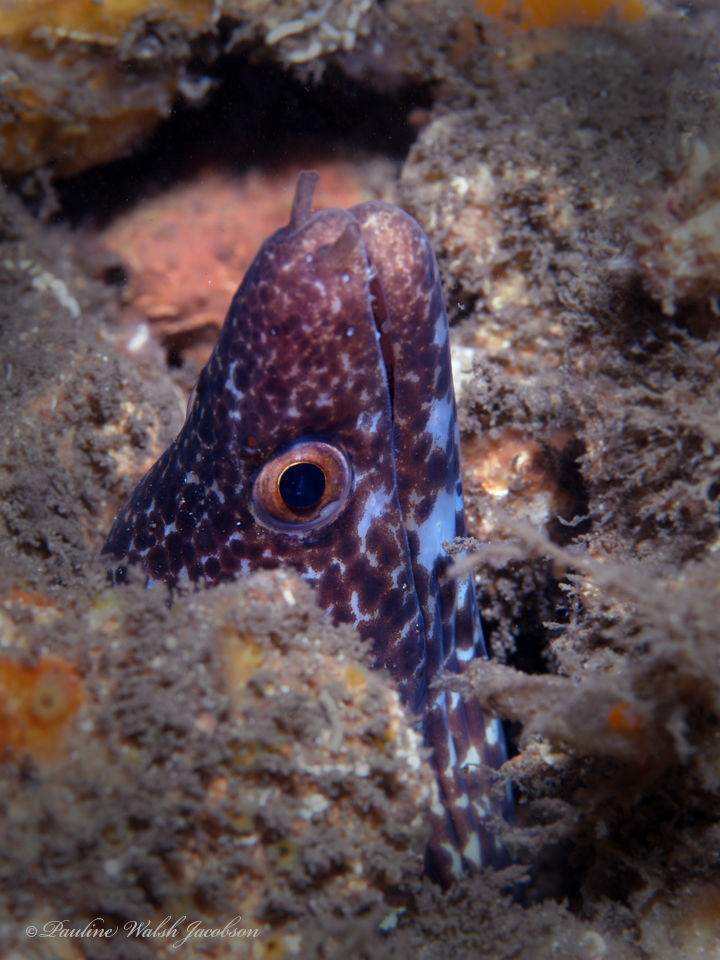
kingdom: Animalia
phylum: Chordata
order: Anguilliformes
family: Muraenidae
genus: Gymnothorax
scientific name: Gymnothorax moringa
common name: Spotted moray
